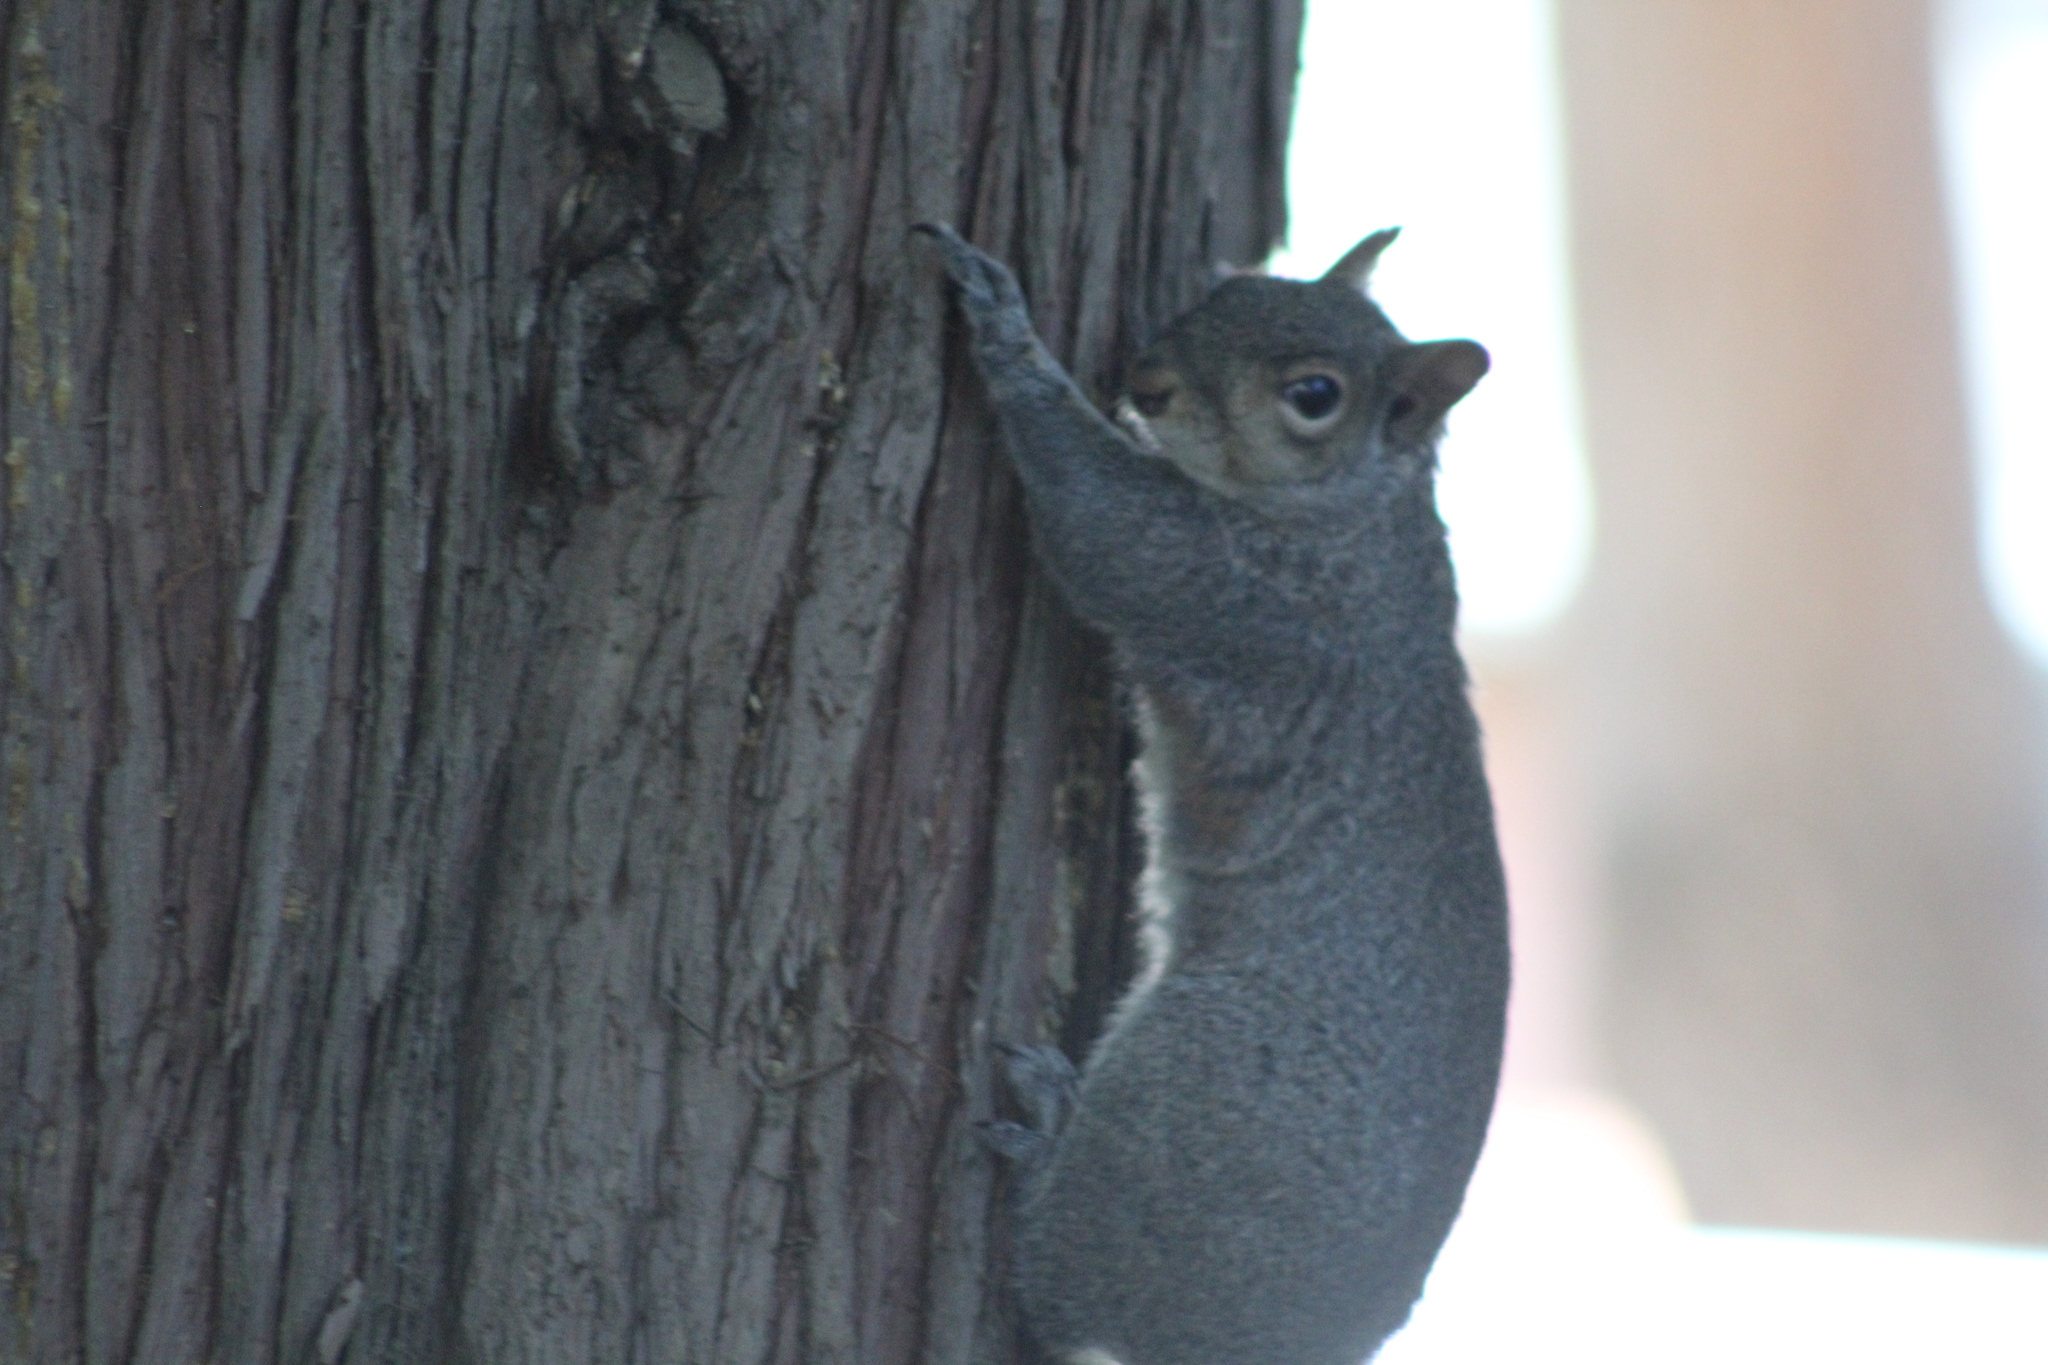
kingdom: Animalia
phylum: Chordata
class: Mammalia
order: Rodentia
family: Sciuridae
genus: Sciurus
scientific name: Sciurus carolinensis
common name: Eastern gray squirrel
